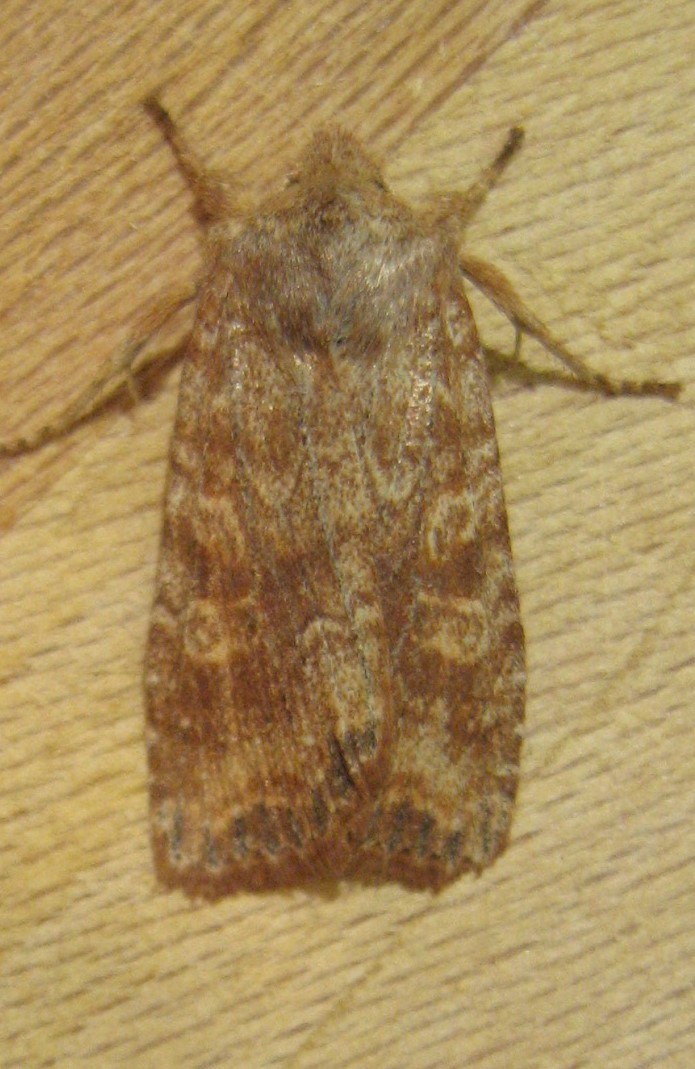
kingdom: Animalia
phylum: Arthropoda
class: Insecta
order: Lepidoptera
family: Noctuidae
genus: Lithophane
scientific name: Lithophane semiusta
